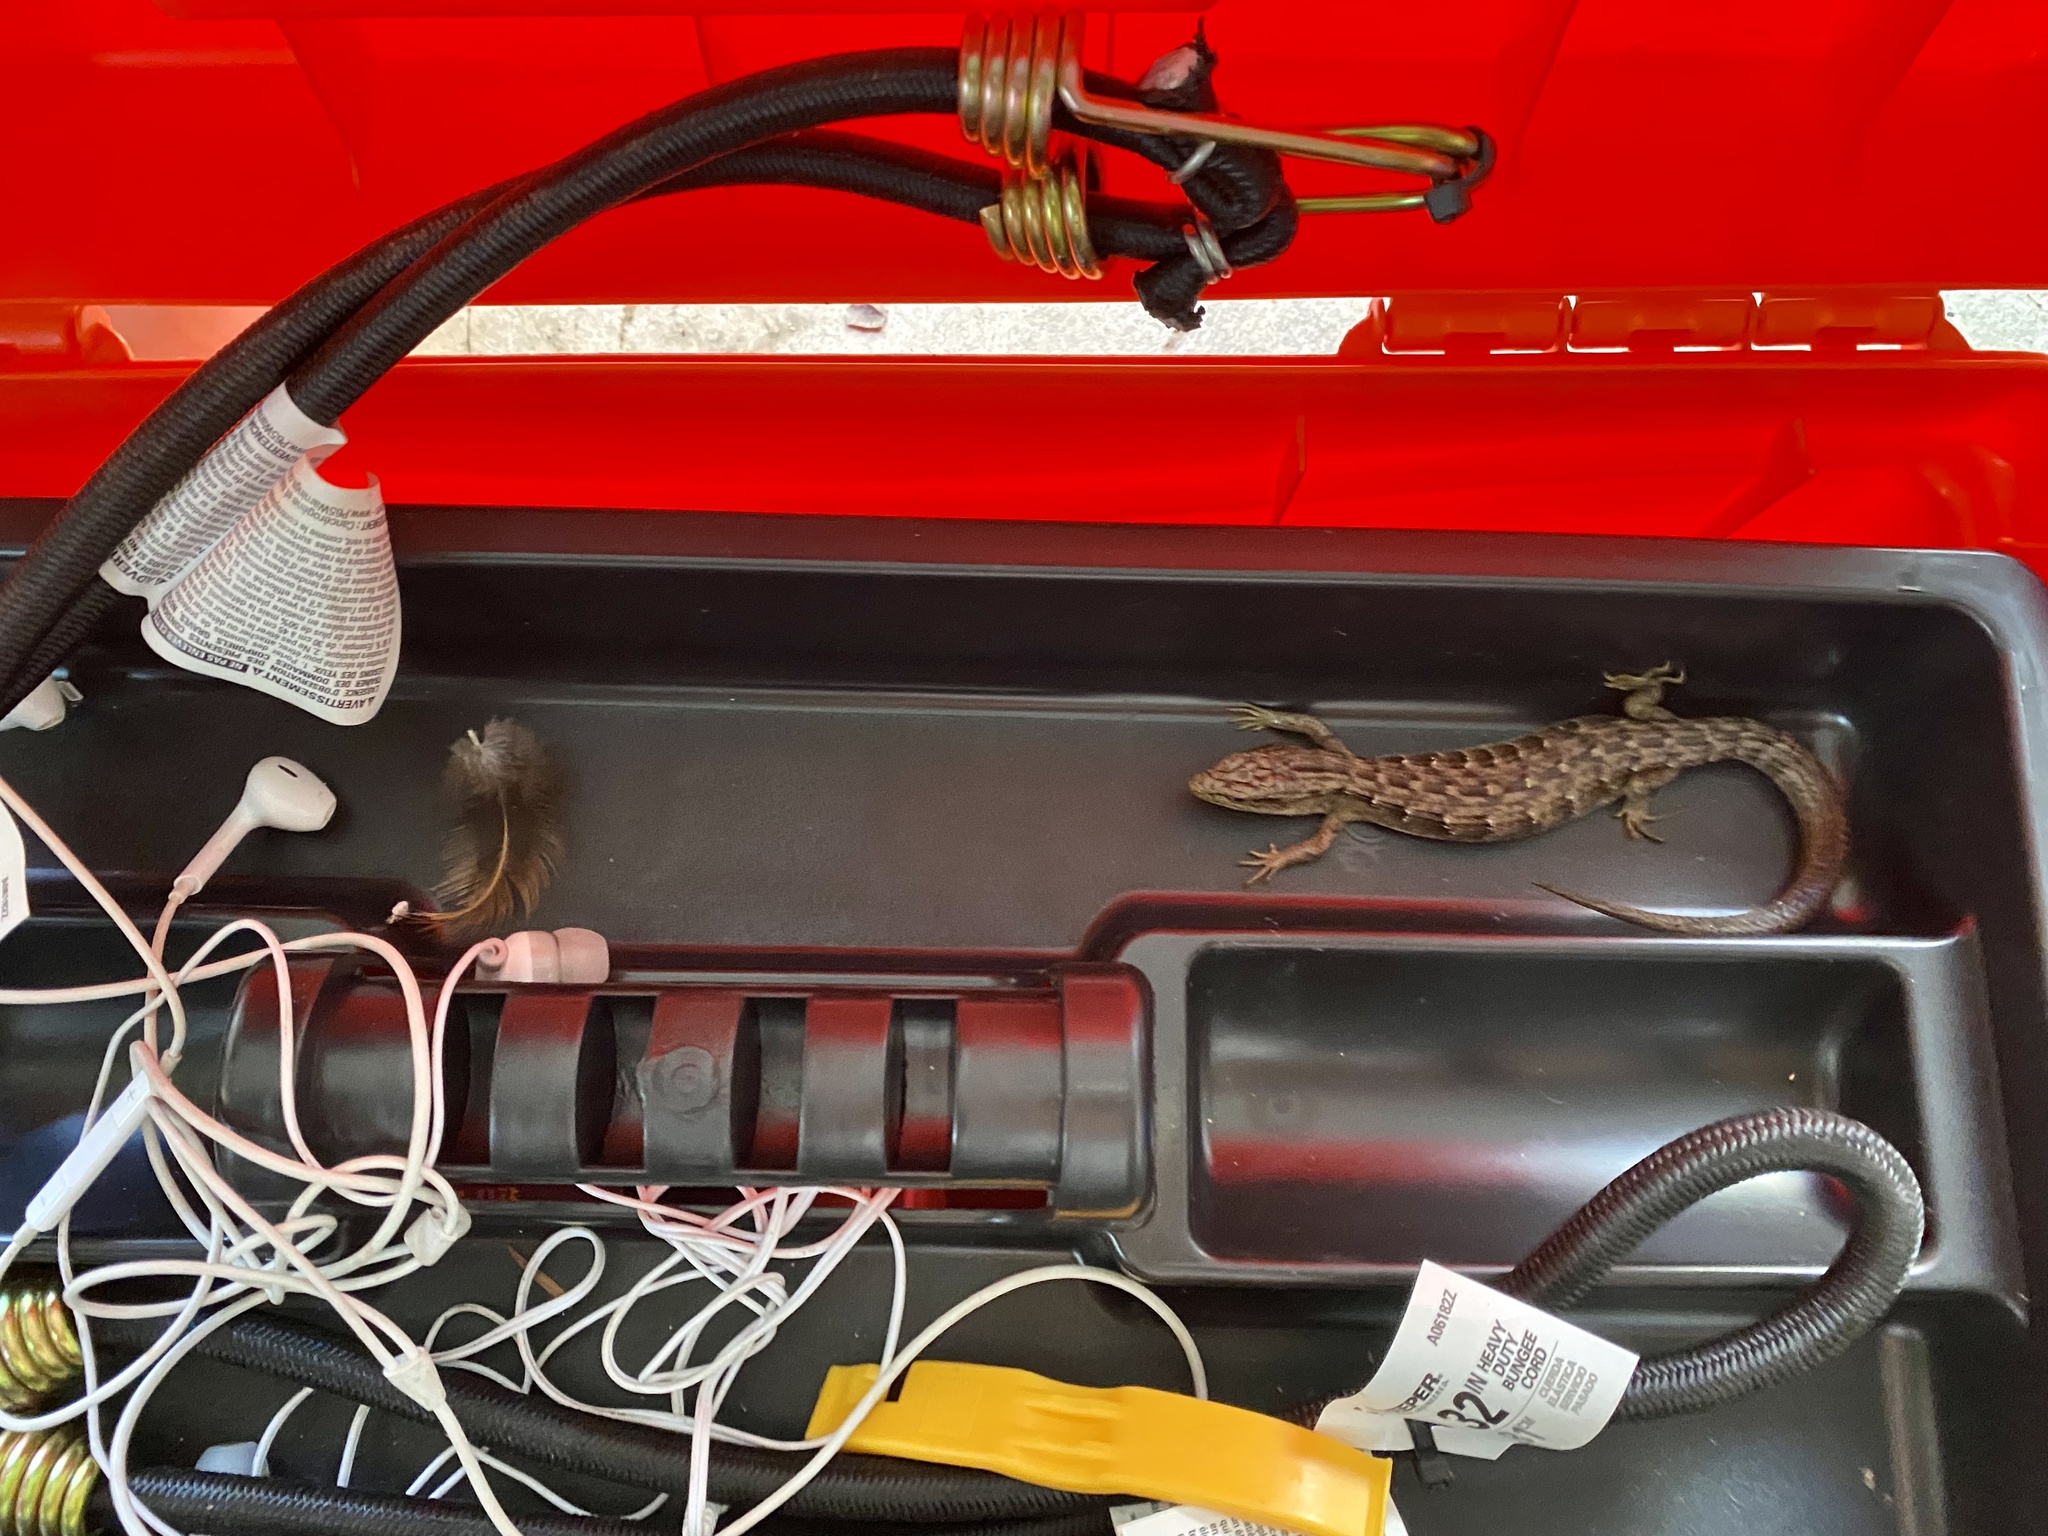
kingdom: Animalia
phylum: Chordata
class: Squamata
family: Anguidae
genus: Elgaria
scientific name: Elgaria multicarinata
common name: Southern alligator lizard
